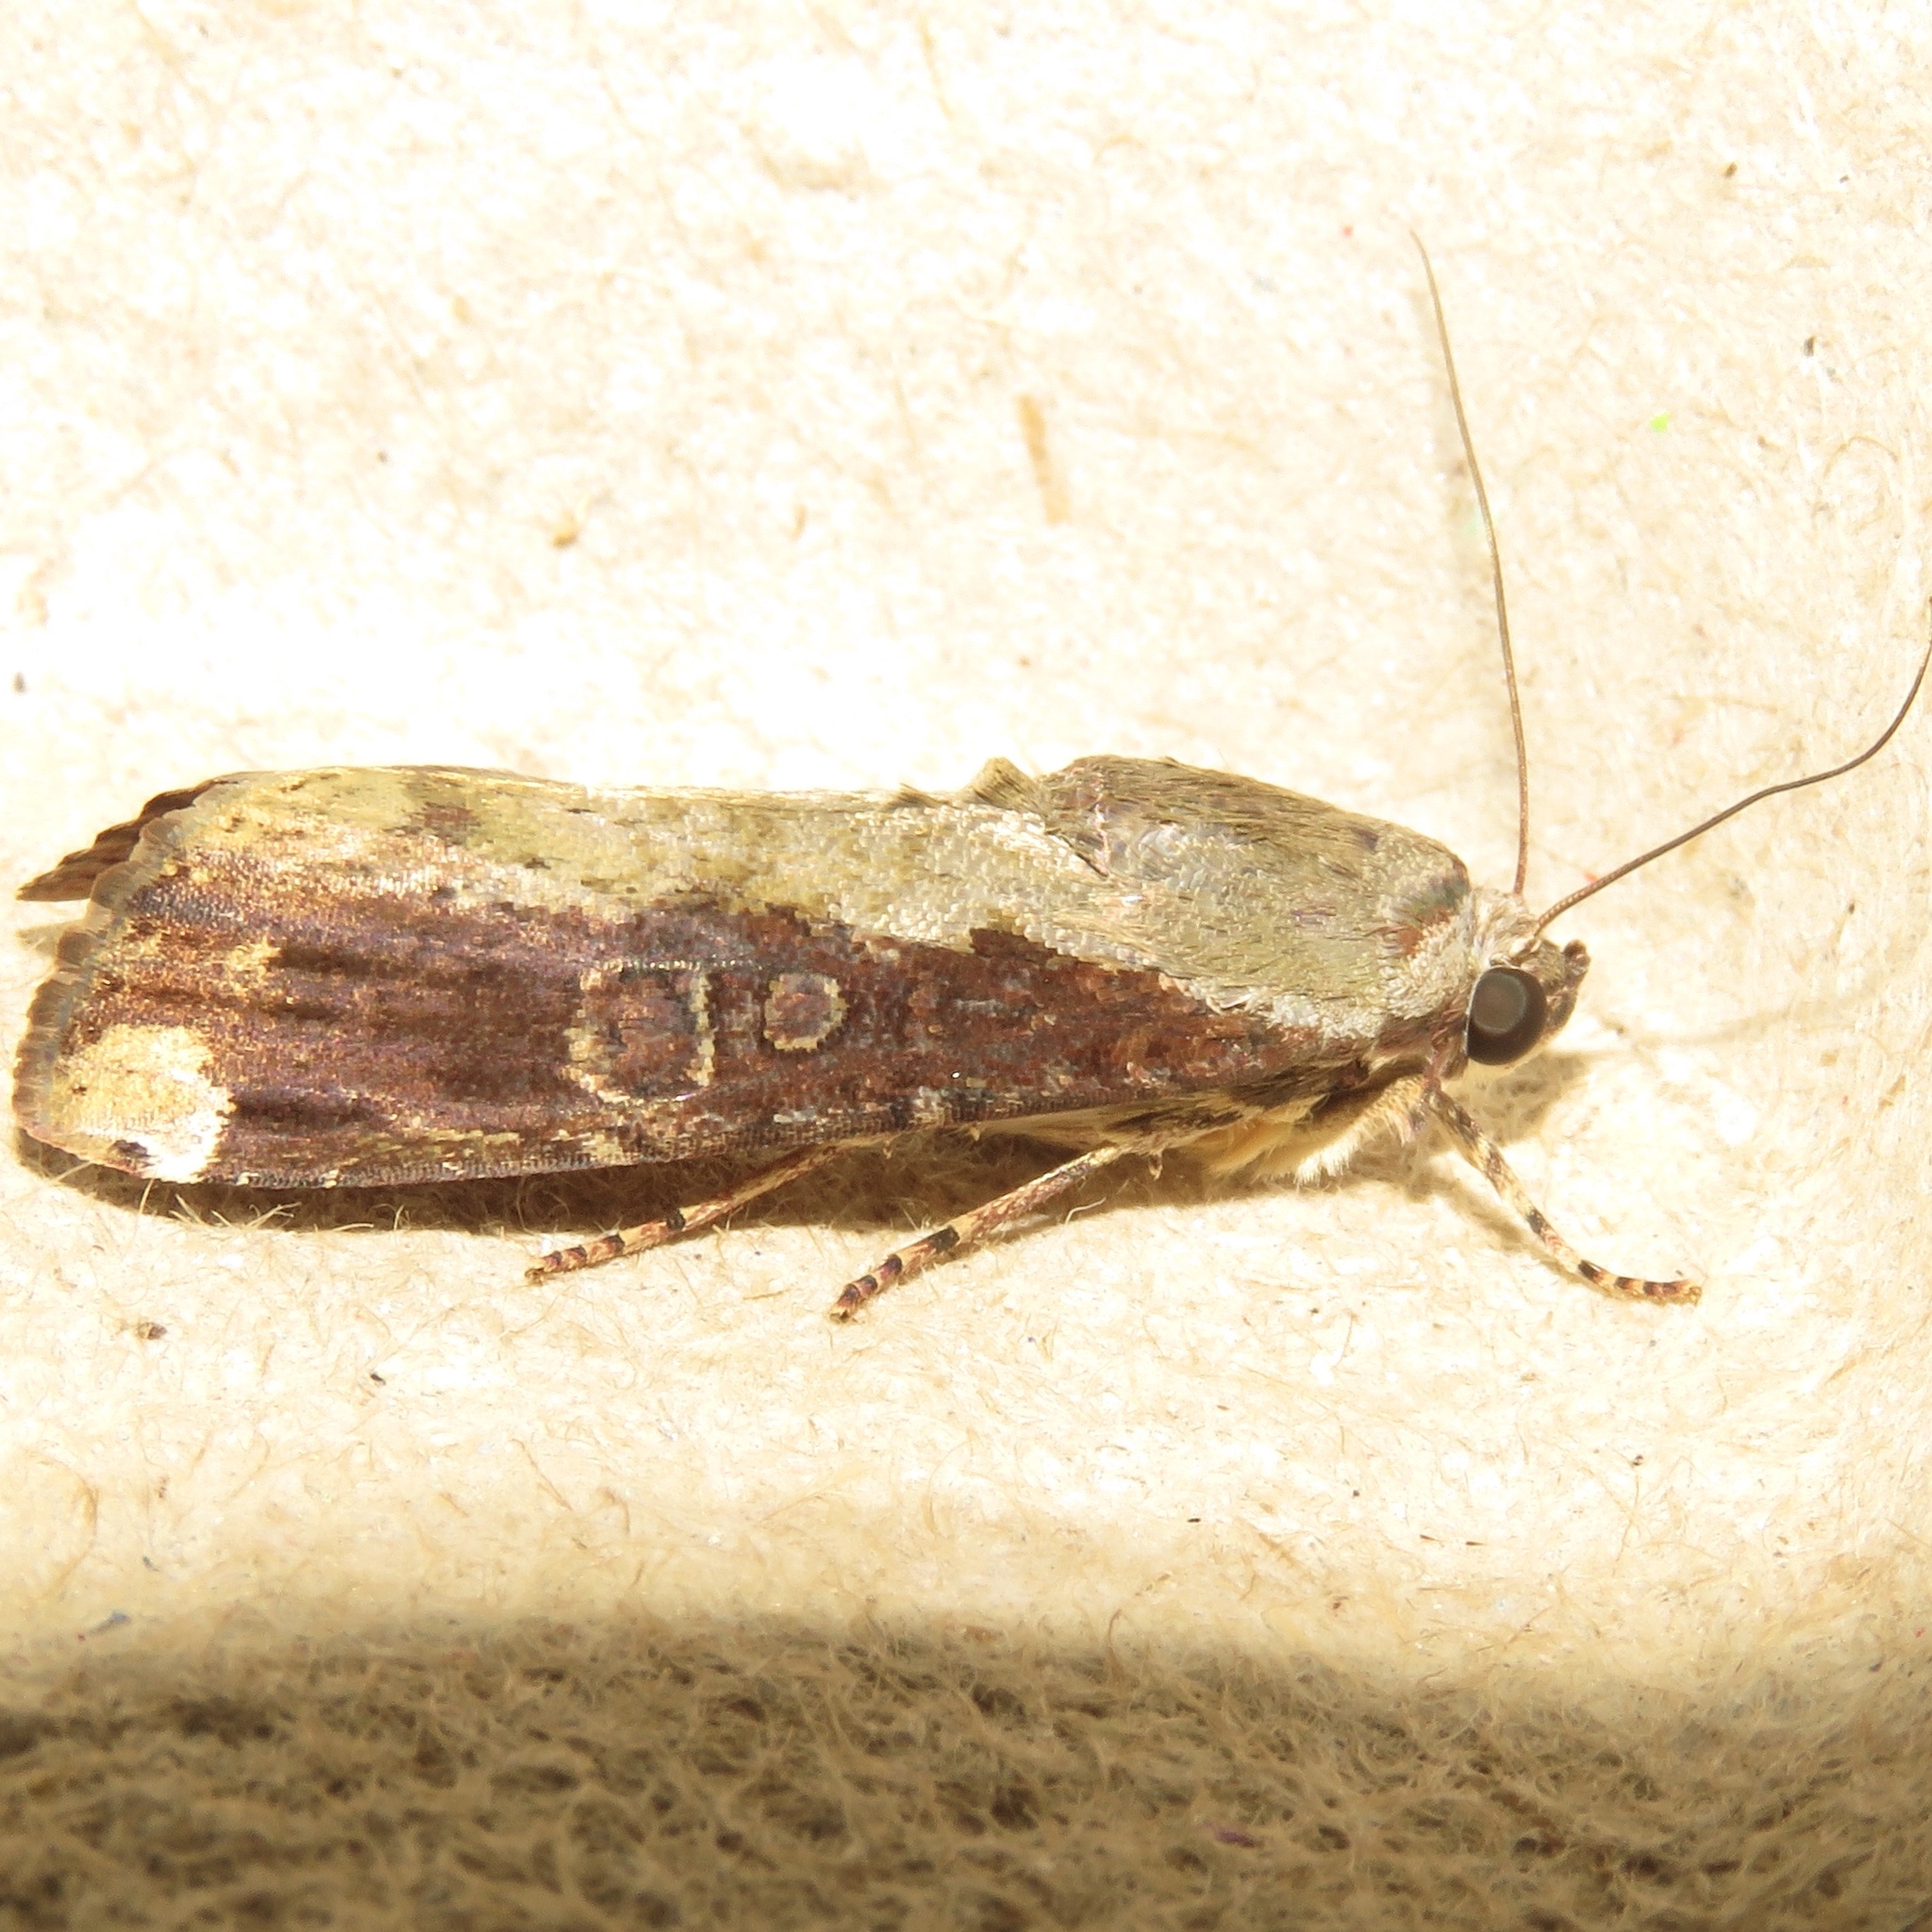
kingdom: Animalia
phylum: Arthropoda
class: Insecta
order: Lepidoptera
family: Noctuidae
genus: Magusa
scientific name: Magusa divaricata
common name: Orb narrow-winged moth
